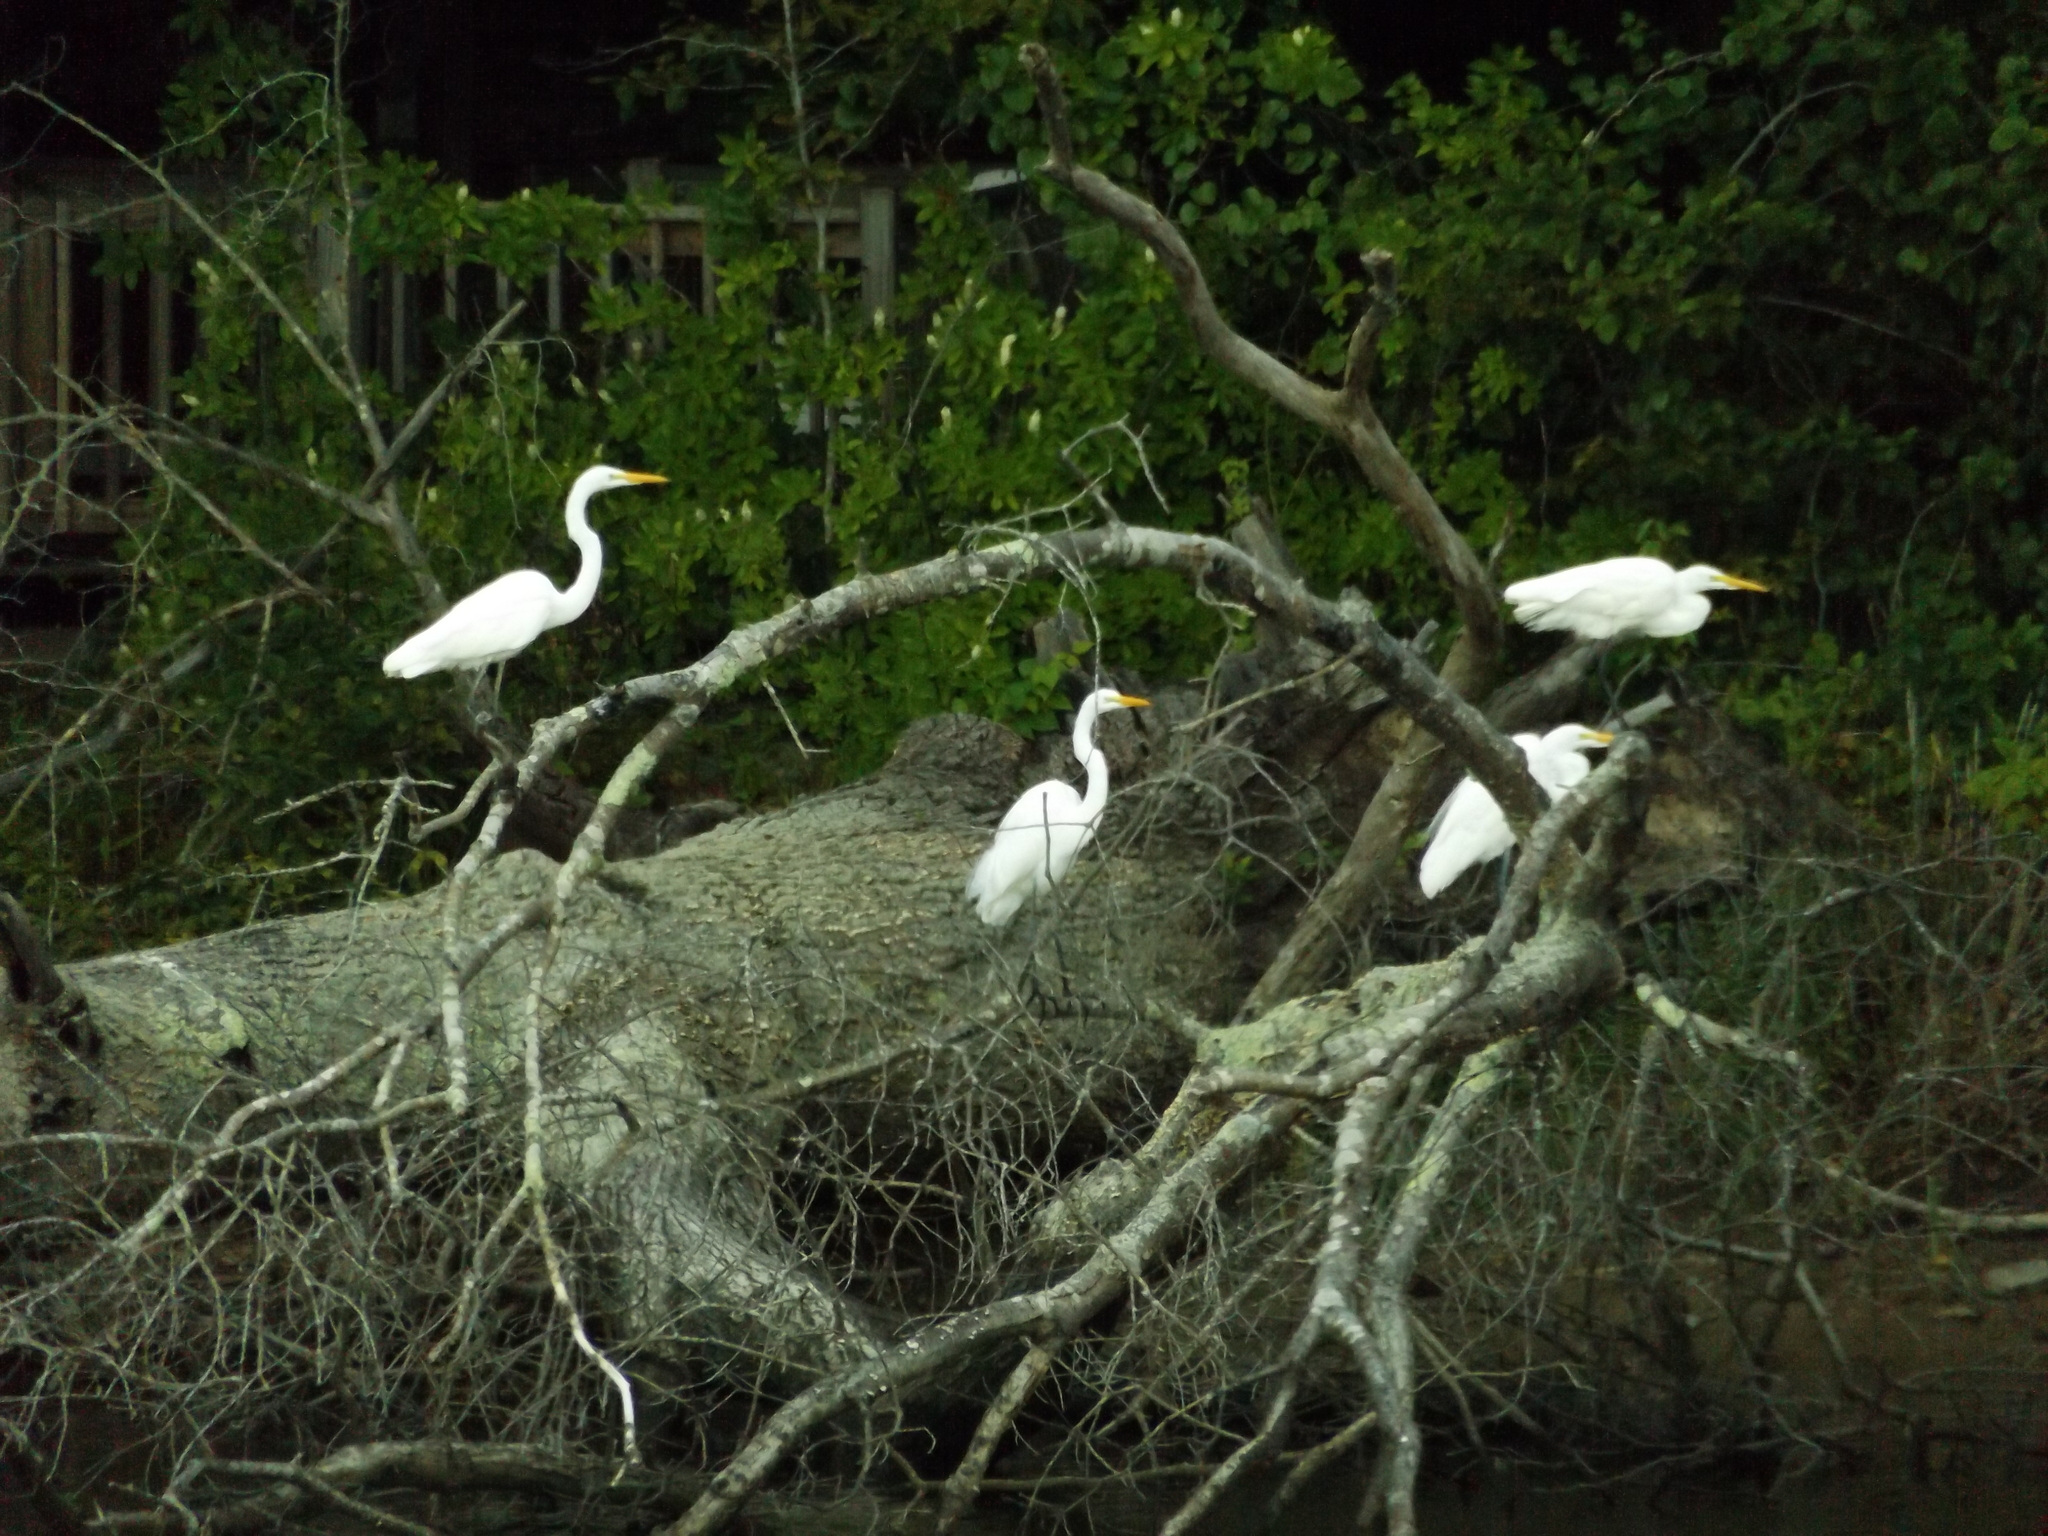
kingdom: Animalia
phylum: Chordata
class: Aves
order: Pelecaniformes
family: Ardeidae
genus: Ardea
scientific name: Ardea alba
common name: Great egret
